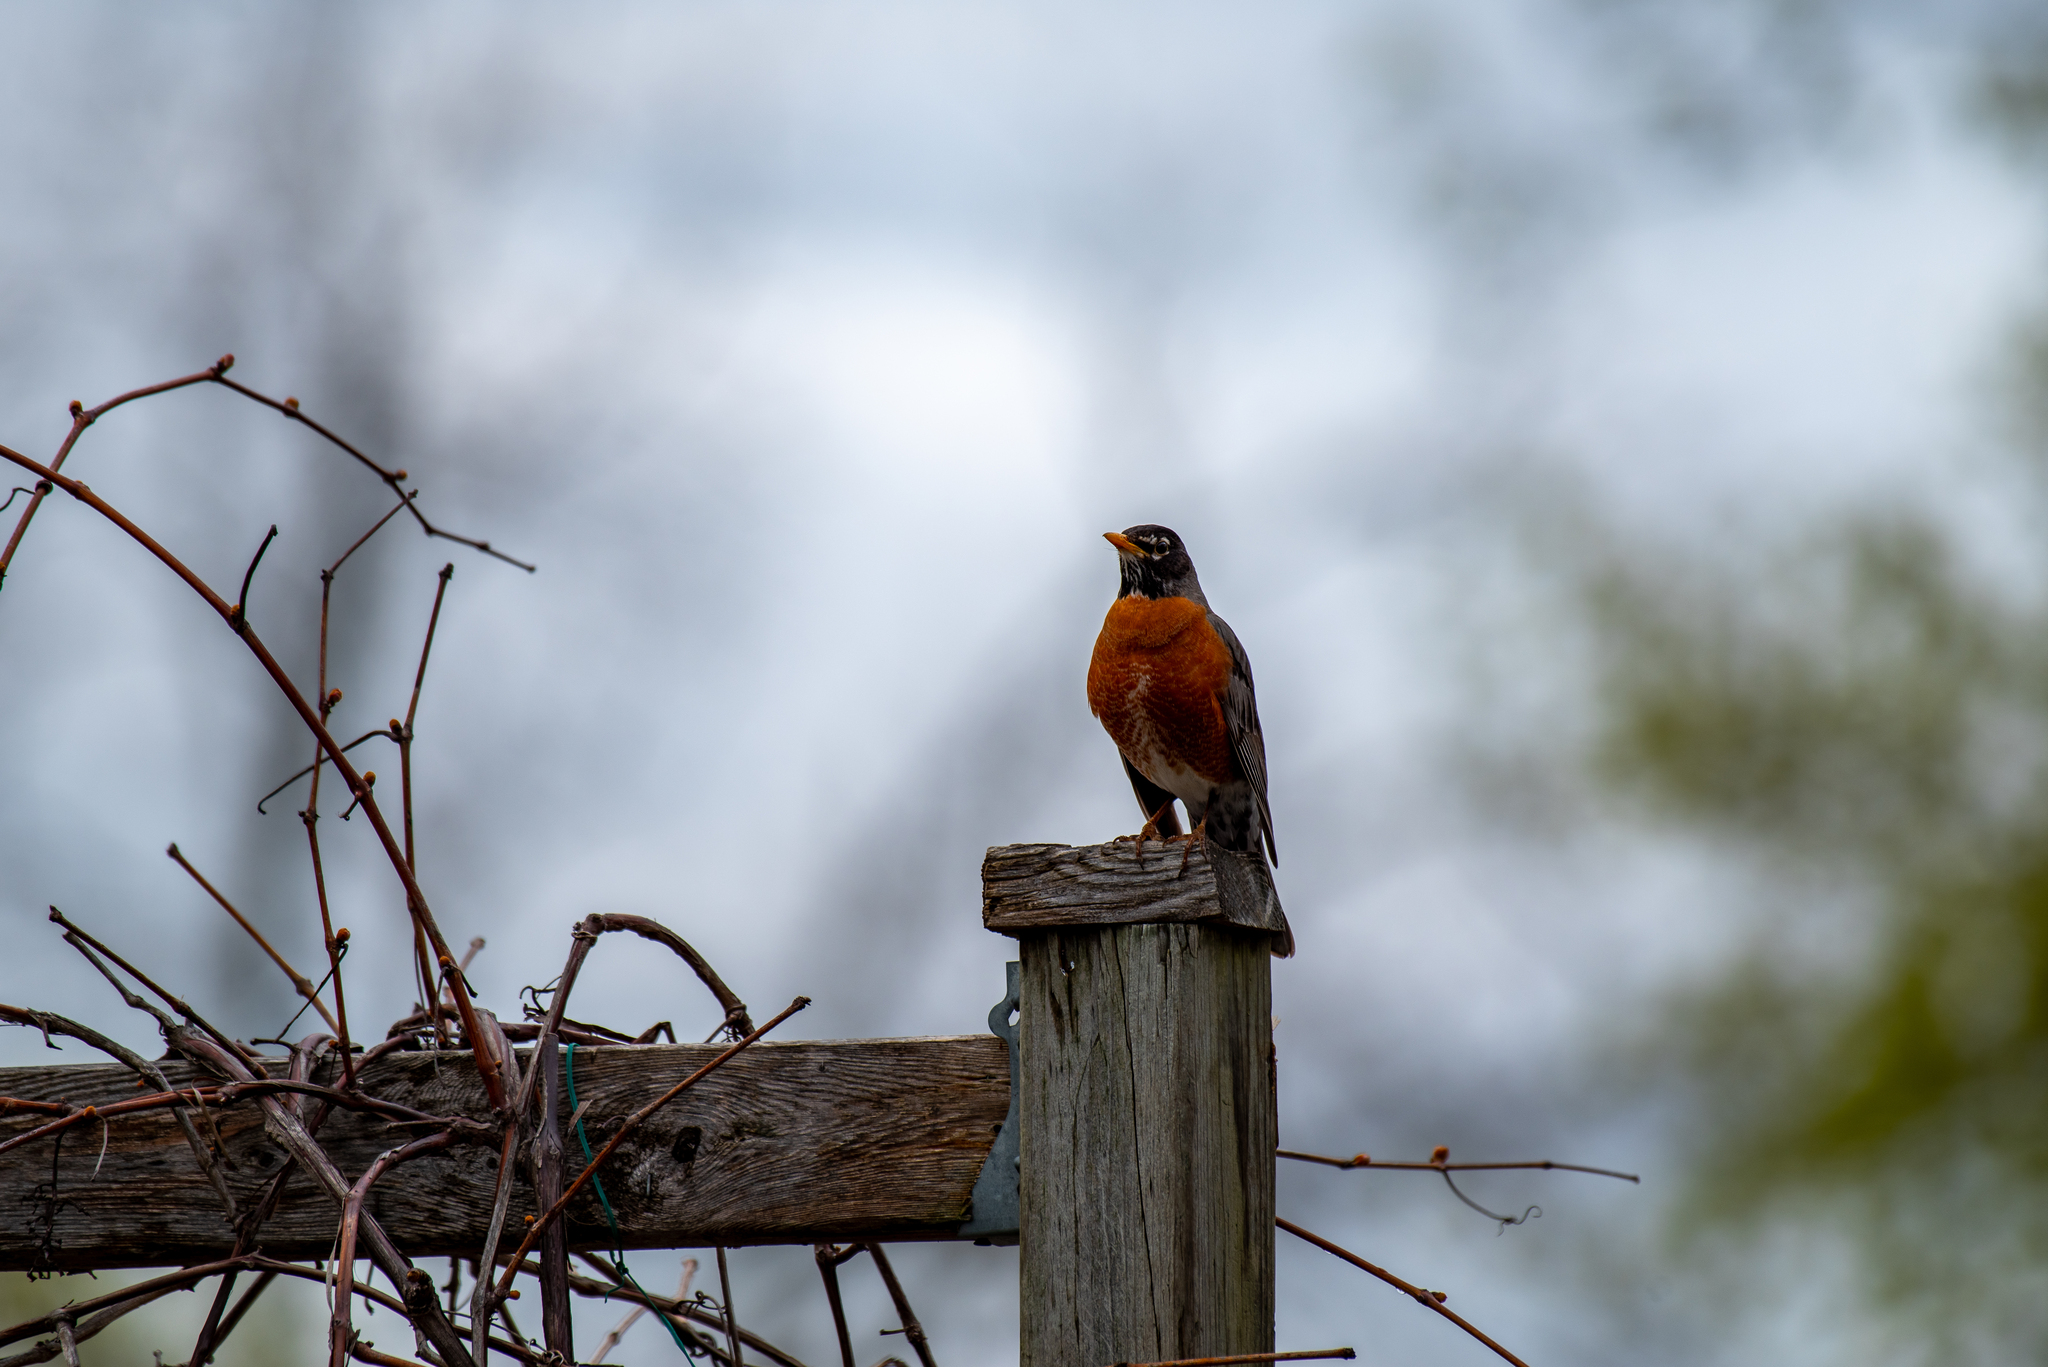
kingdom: Animalia
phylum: Chordata
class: Aves
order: Passeriformes
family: Turdidae
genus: Turdus
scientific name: Turdus migratorius
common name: American robin
